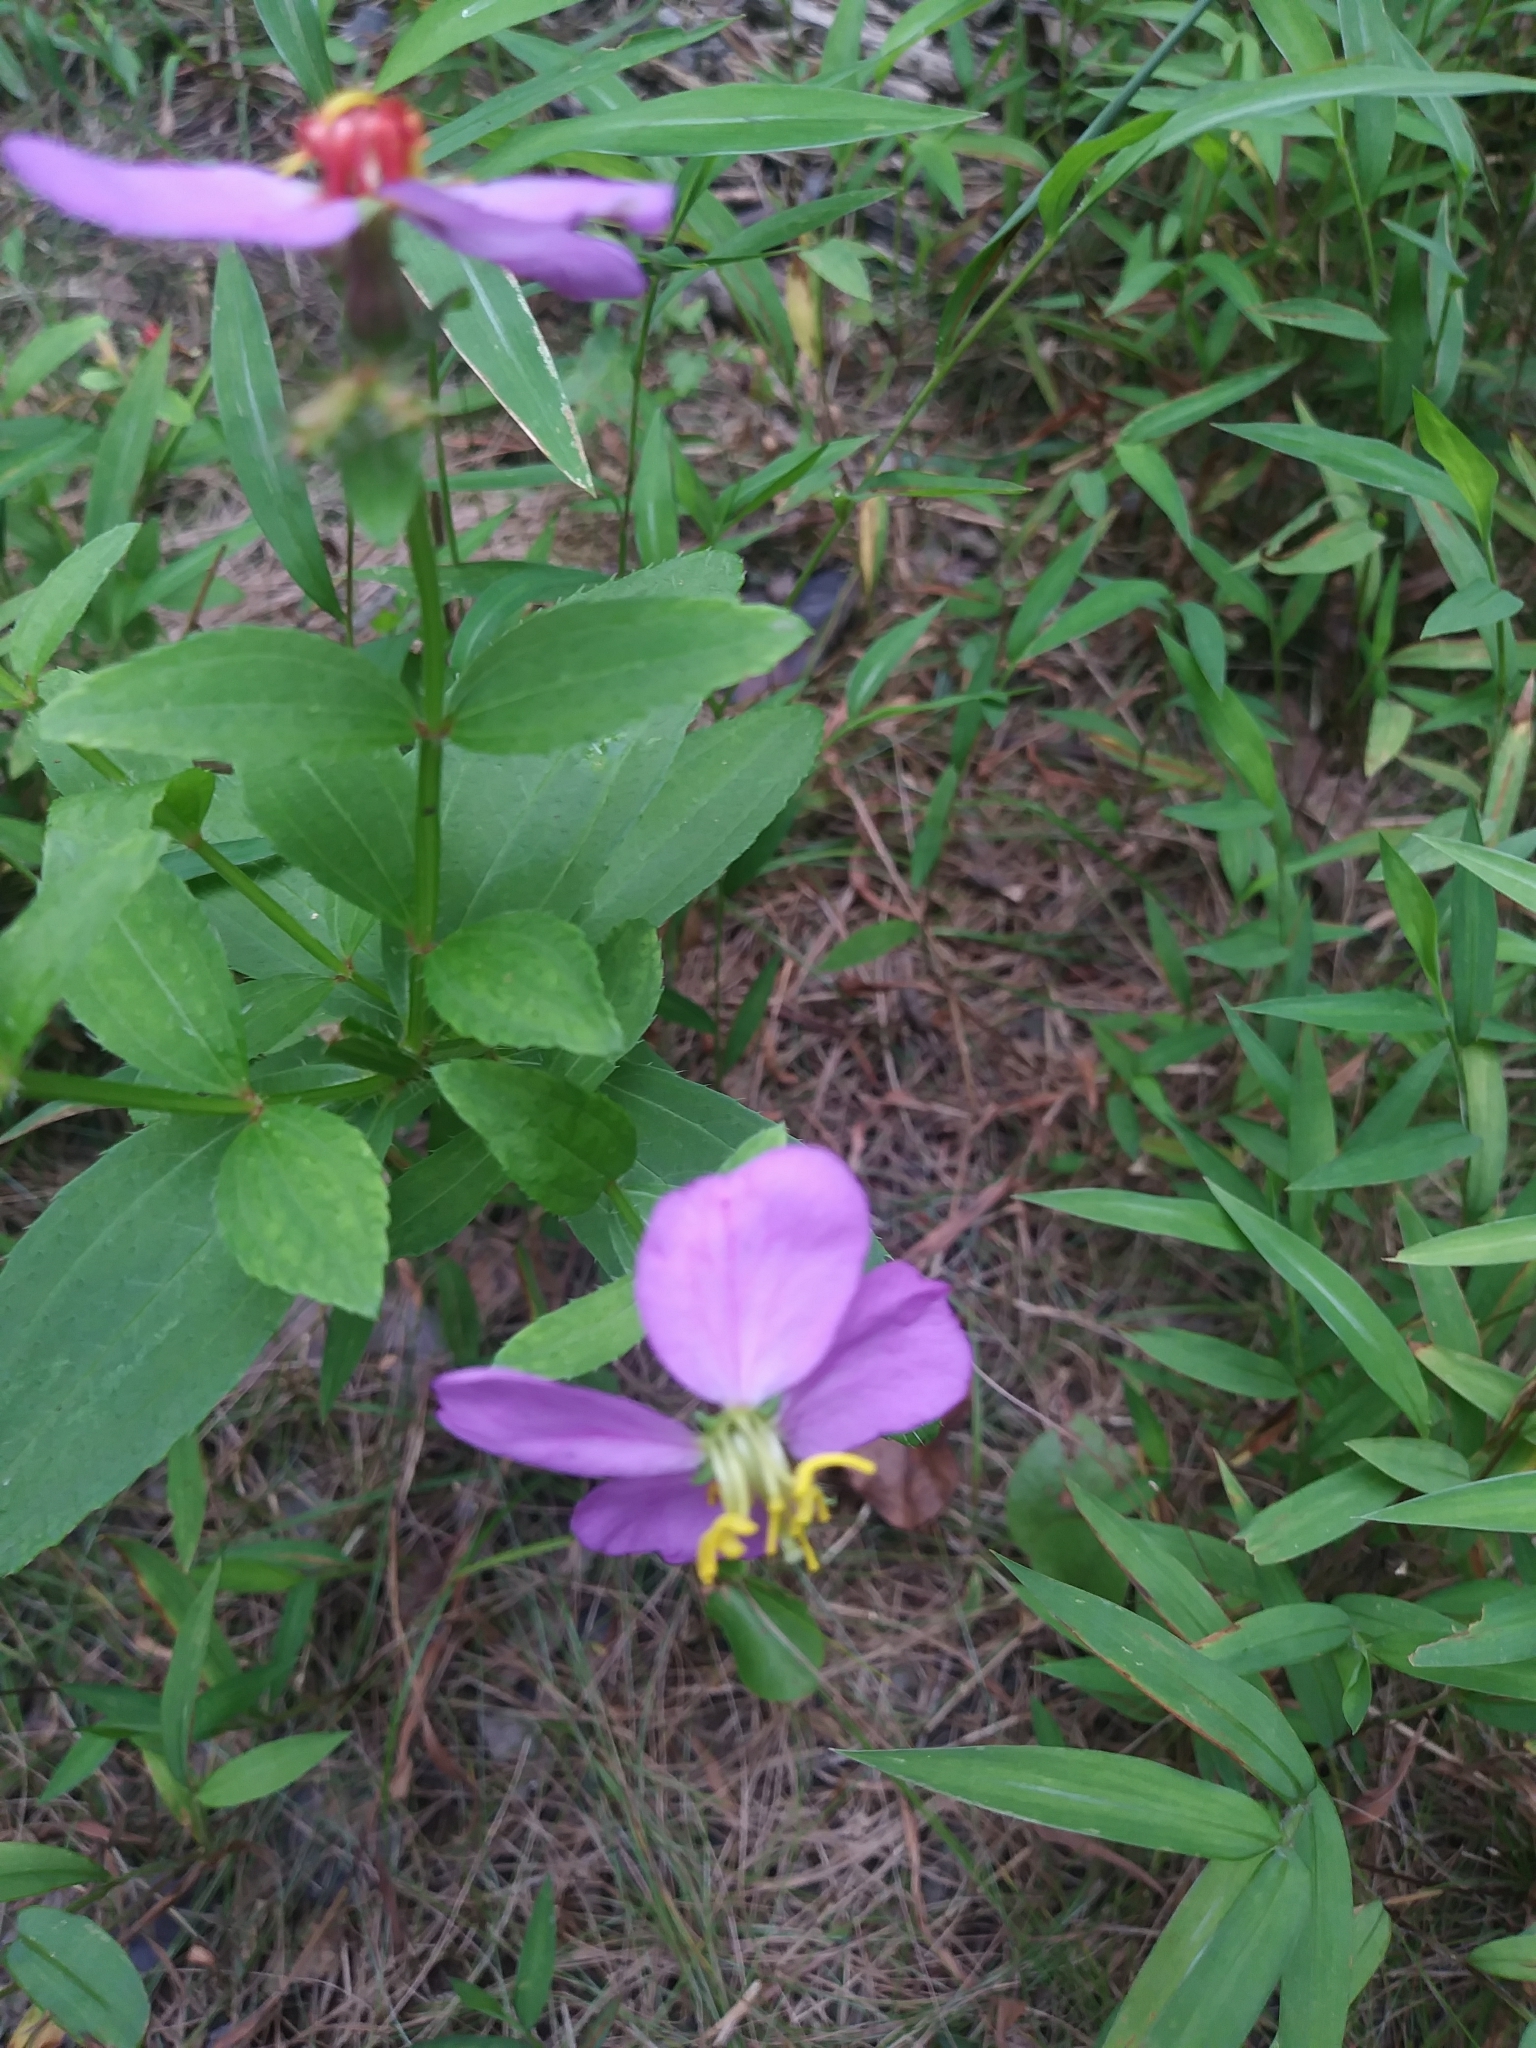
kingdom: Plantae
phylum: Tracheophyta
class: Magnoliopsida
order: Myrtales
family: Melastomataceae
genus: Rhexia
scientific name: Rhexia virginica
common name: Common meadow beauty
